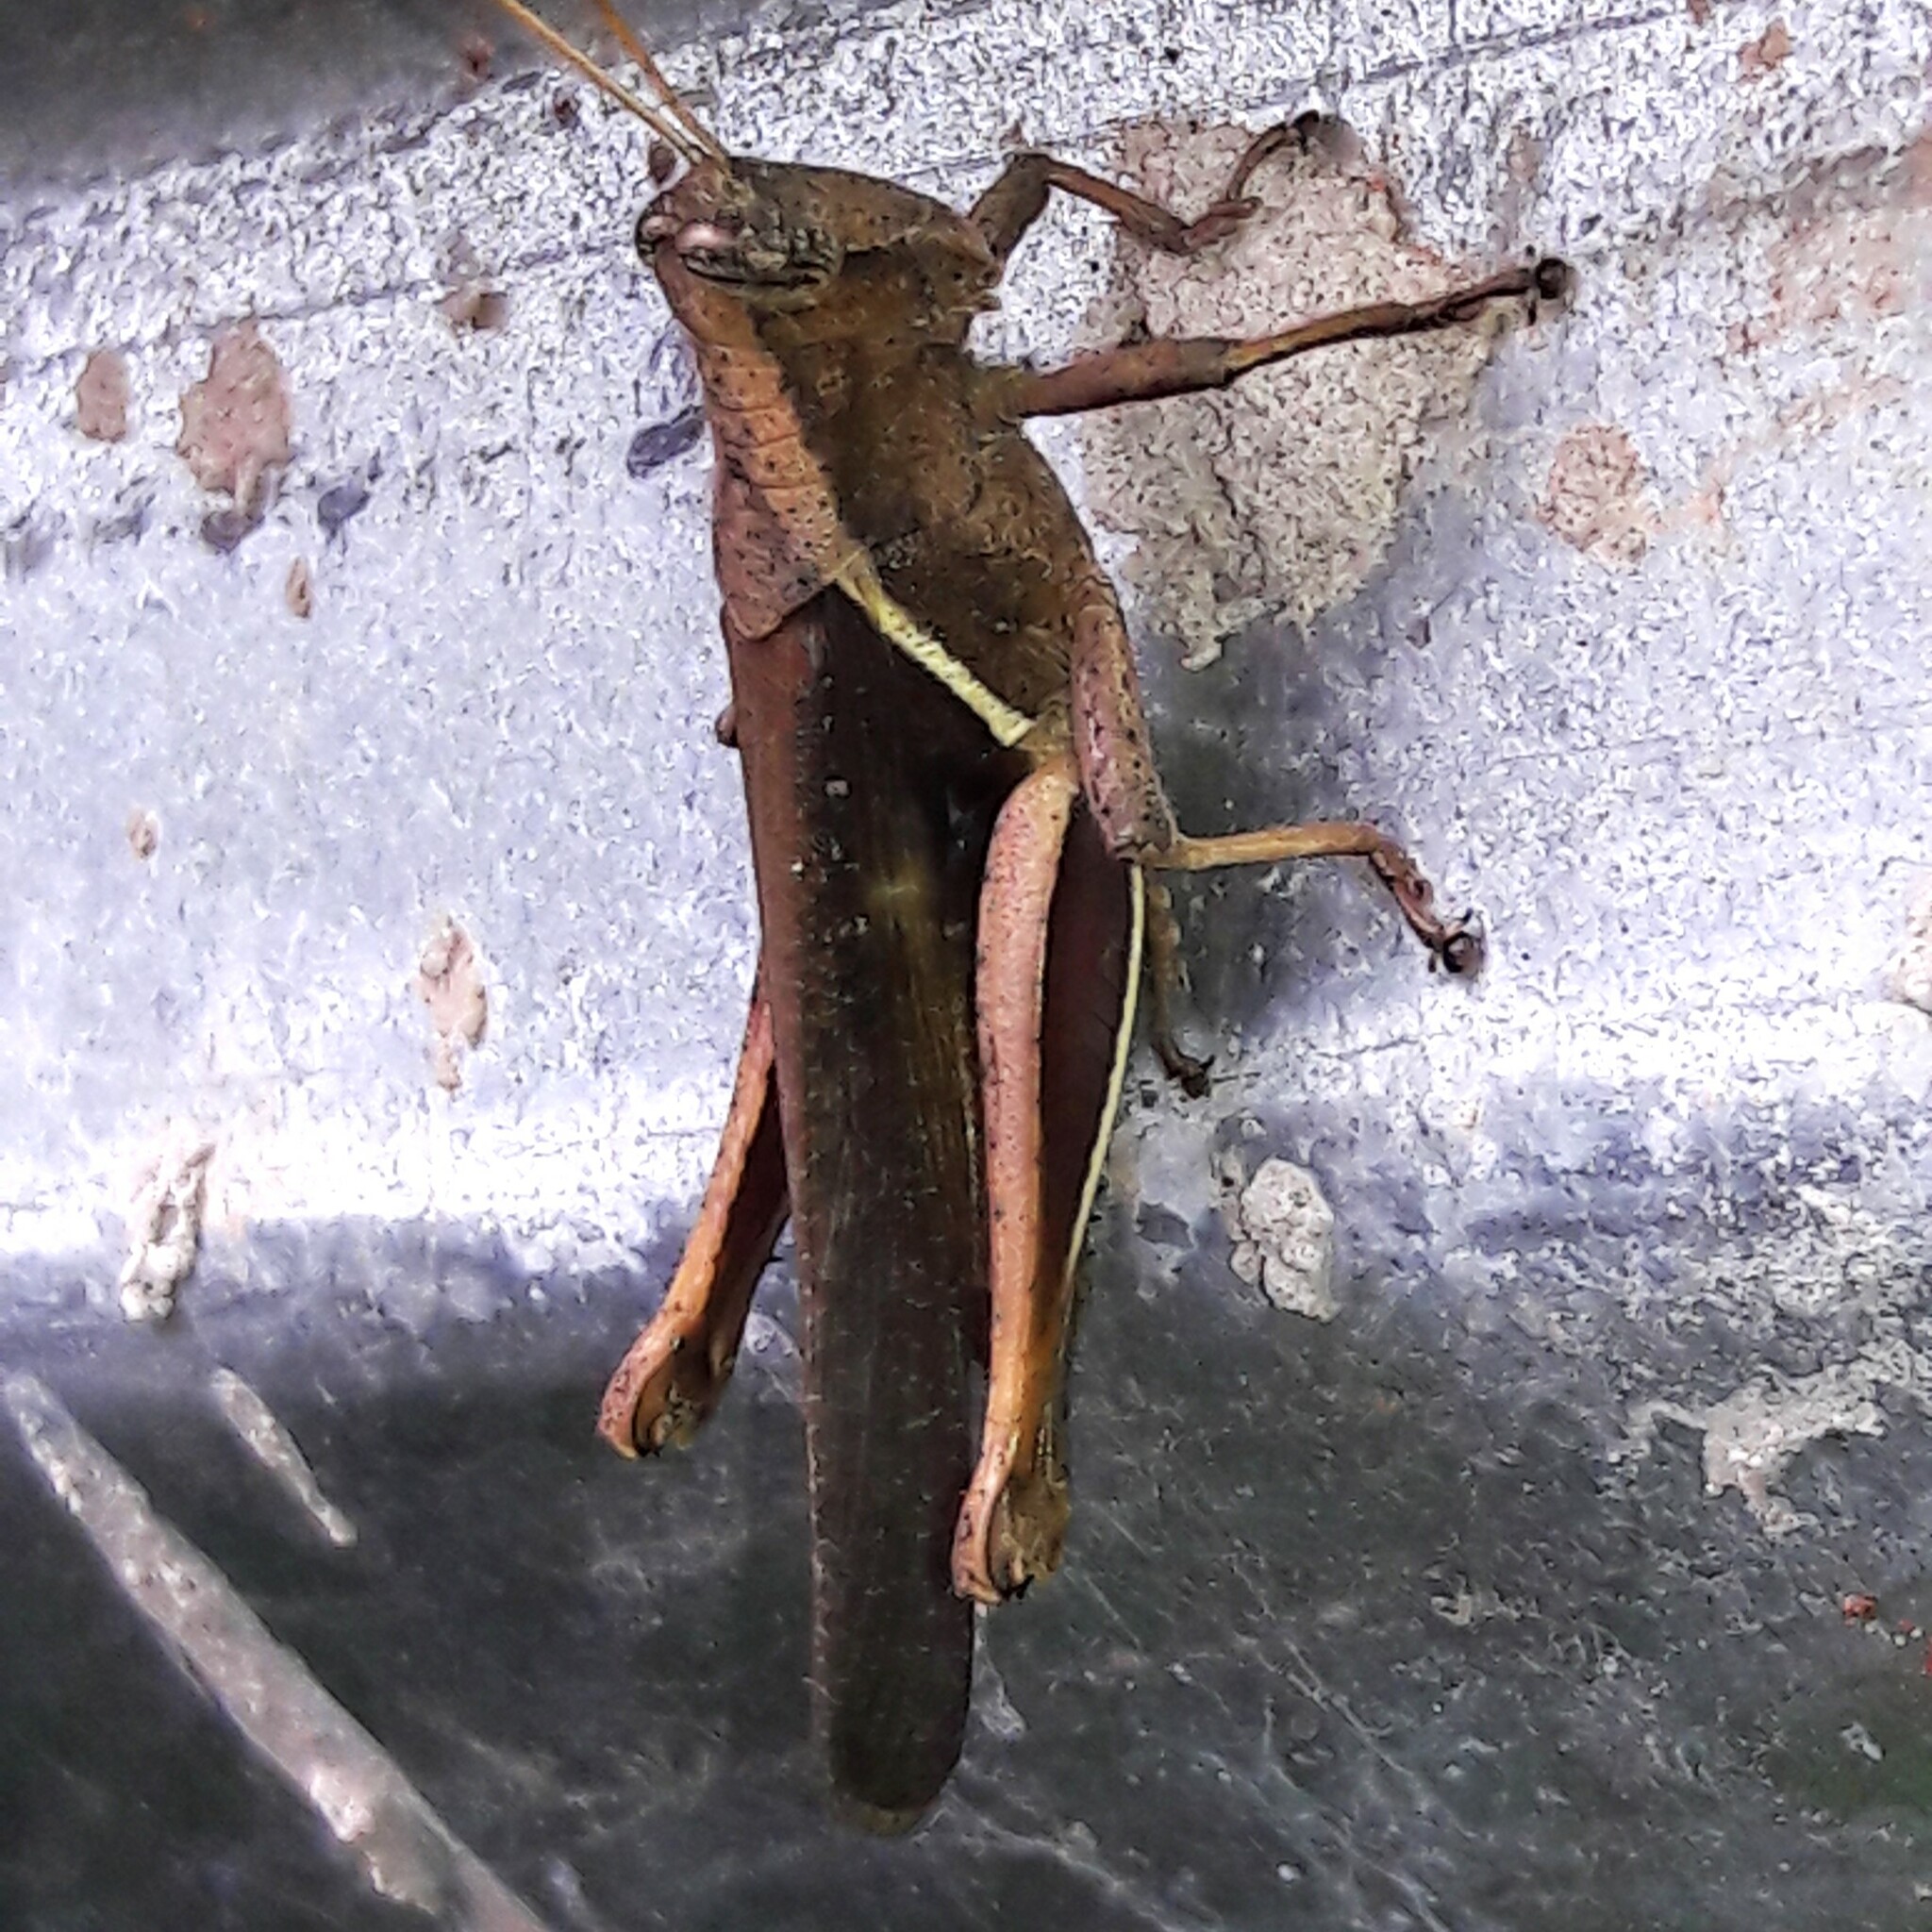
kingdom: Animalia
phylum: Arthropoda
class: Insecta
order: Orthoptera
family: Acrididae
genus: Abracris
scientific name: Abracris flavolineata
